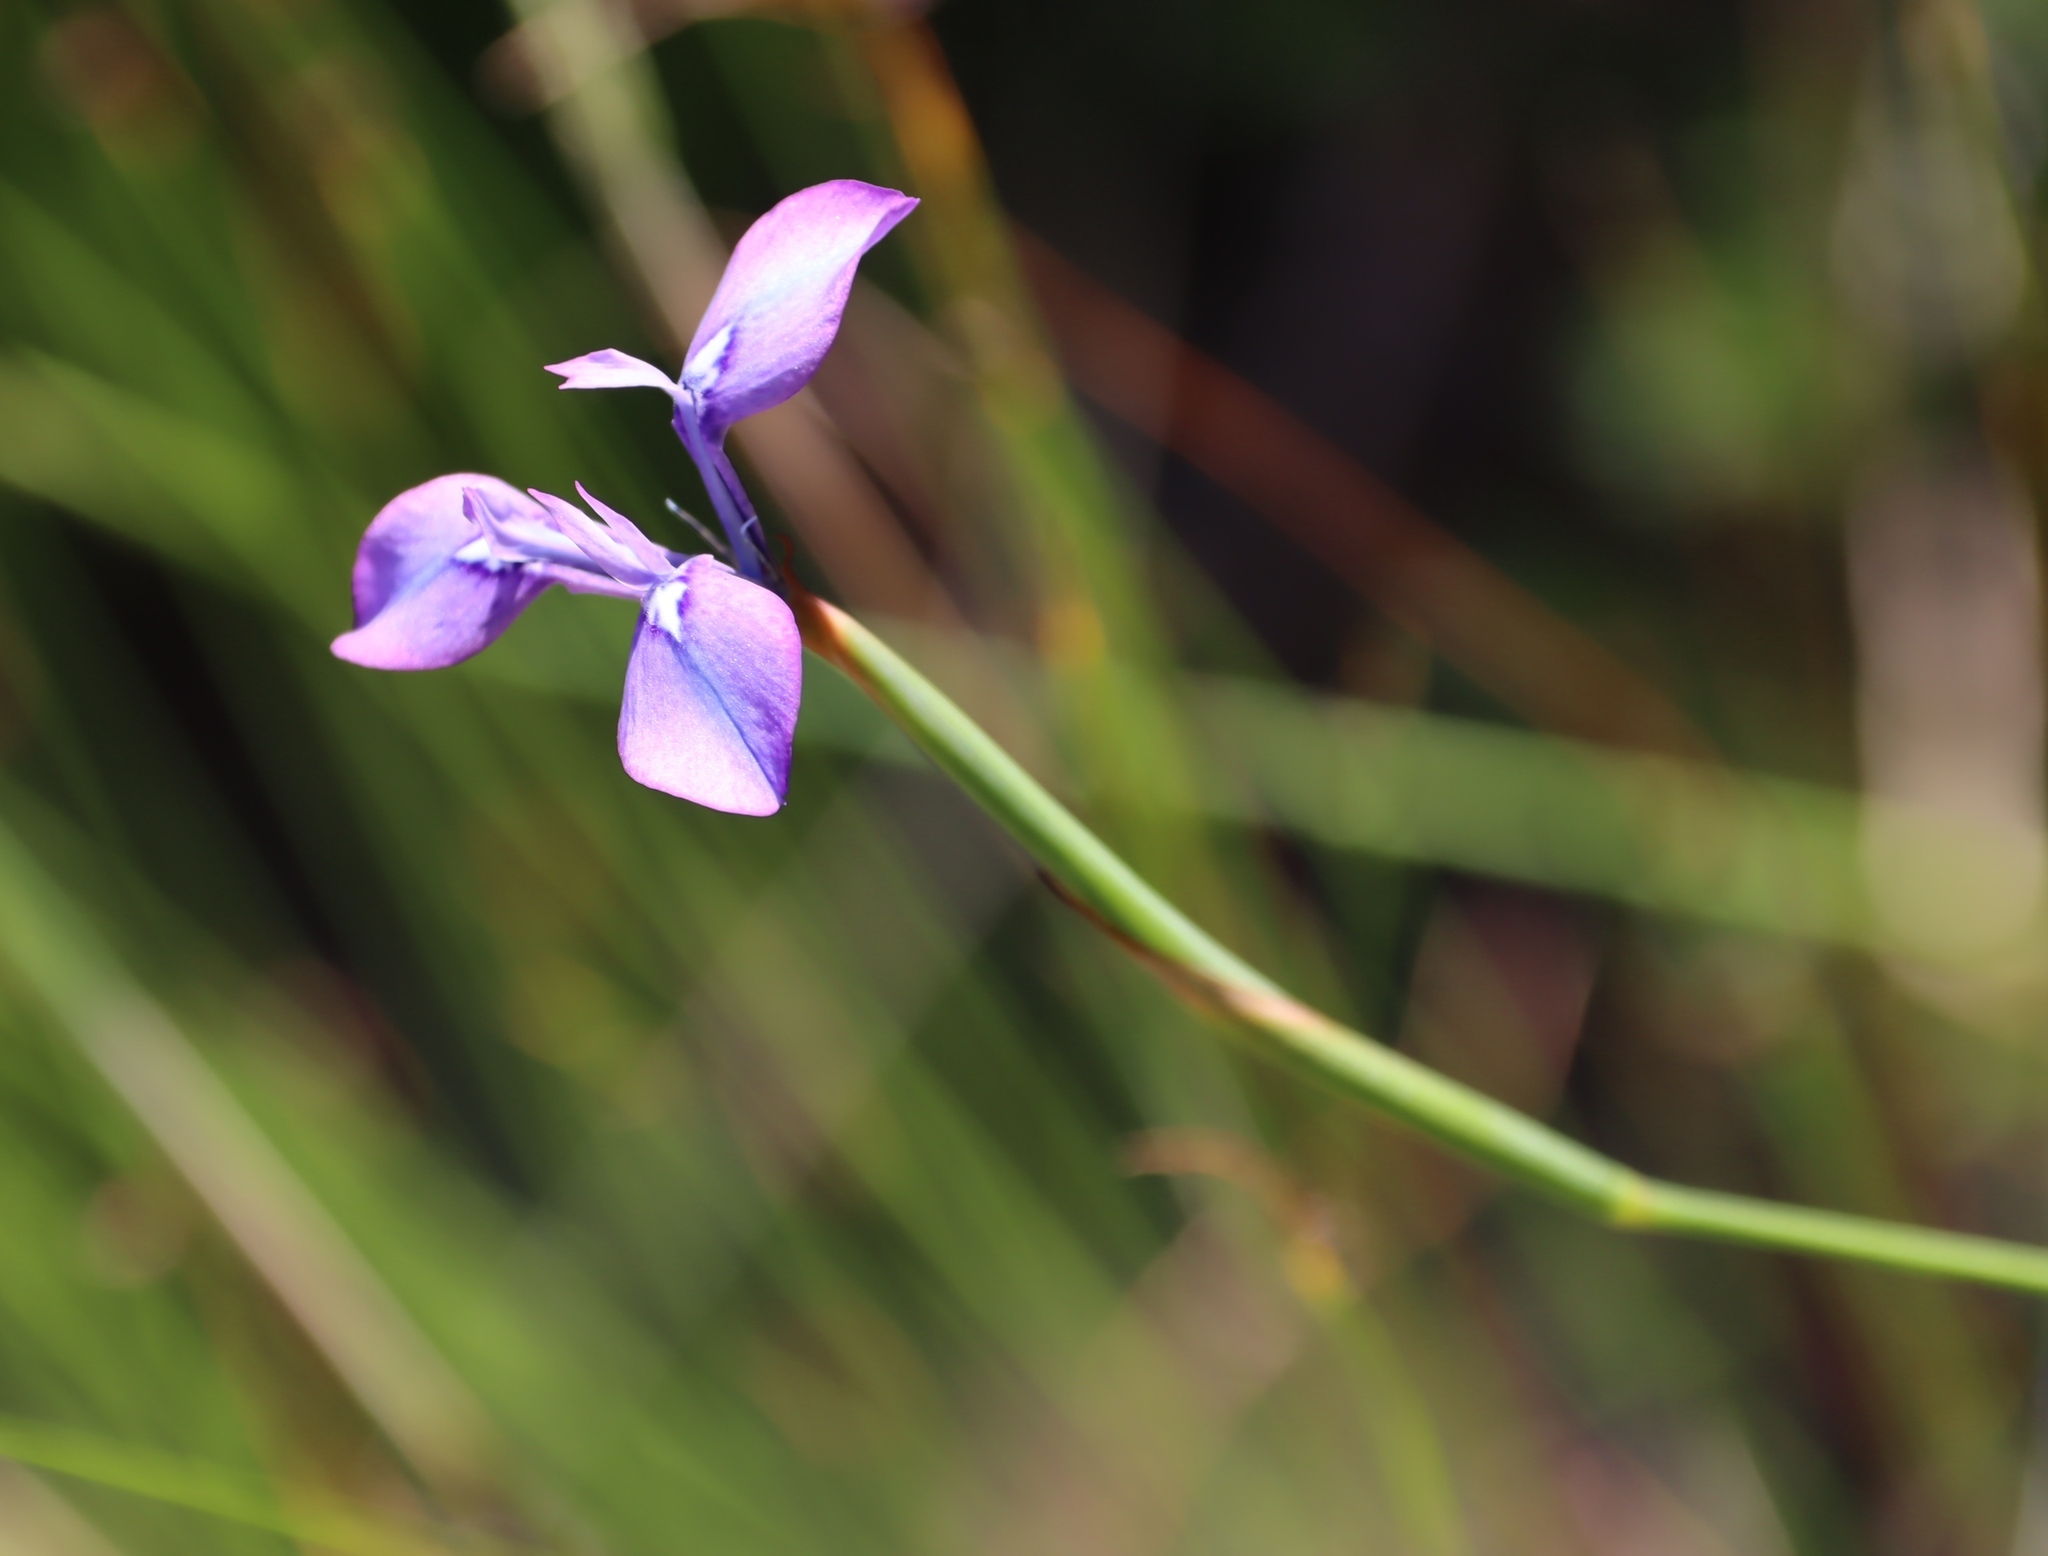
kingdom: Plantae
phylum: Tracheophyta
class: Liliopsida
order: Asparagales
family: Iridaceae
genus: Moraea
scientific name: Moraea tripetala
